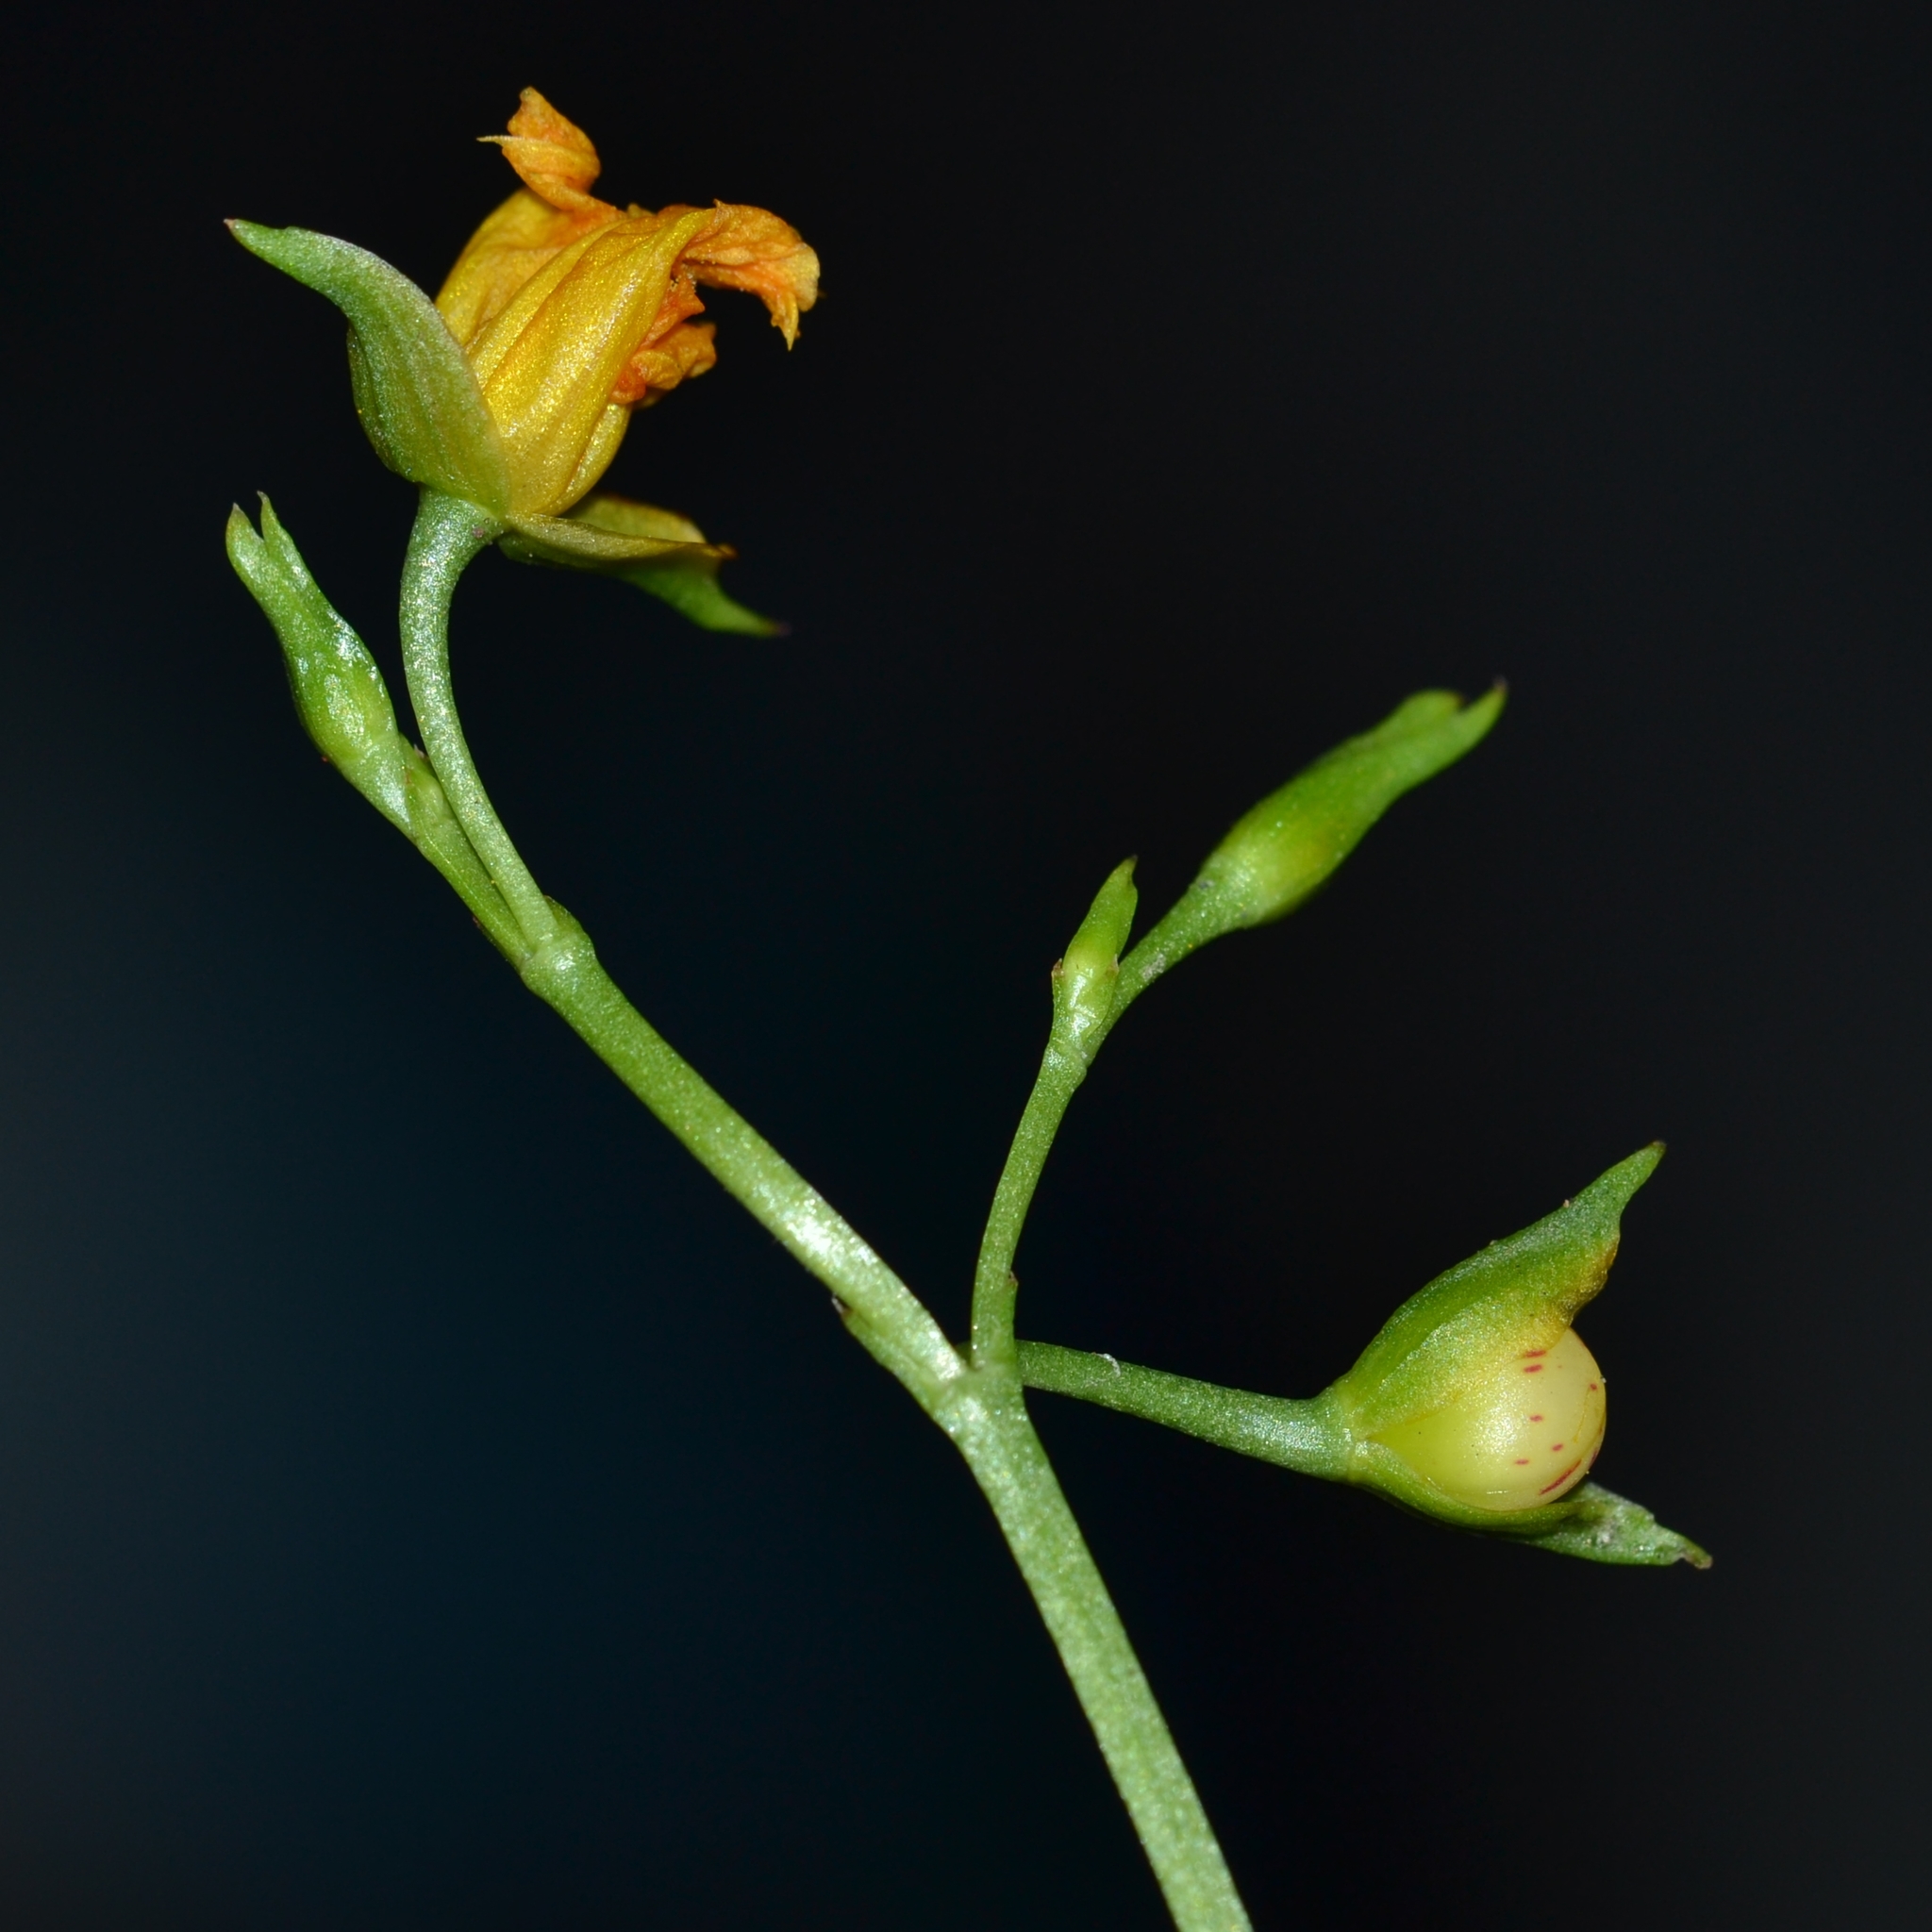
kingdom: Plantae
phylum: Tracheophyta
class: Magnoliopsida
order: Caryophyllales
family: Talinaceae
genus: Talinum
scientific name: Talinum fruticosum
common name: Verdolaga-francesa
